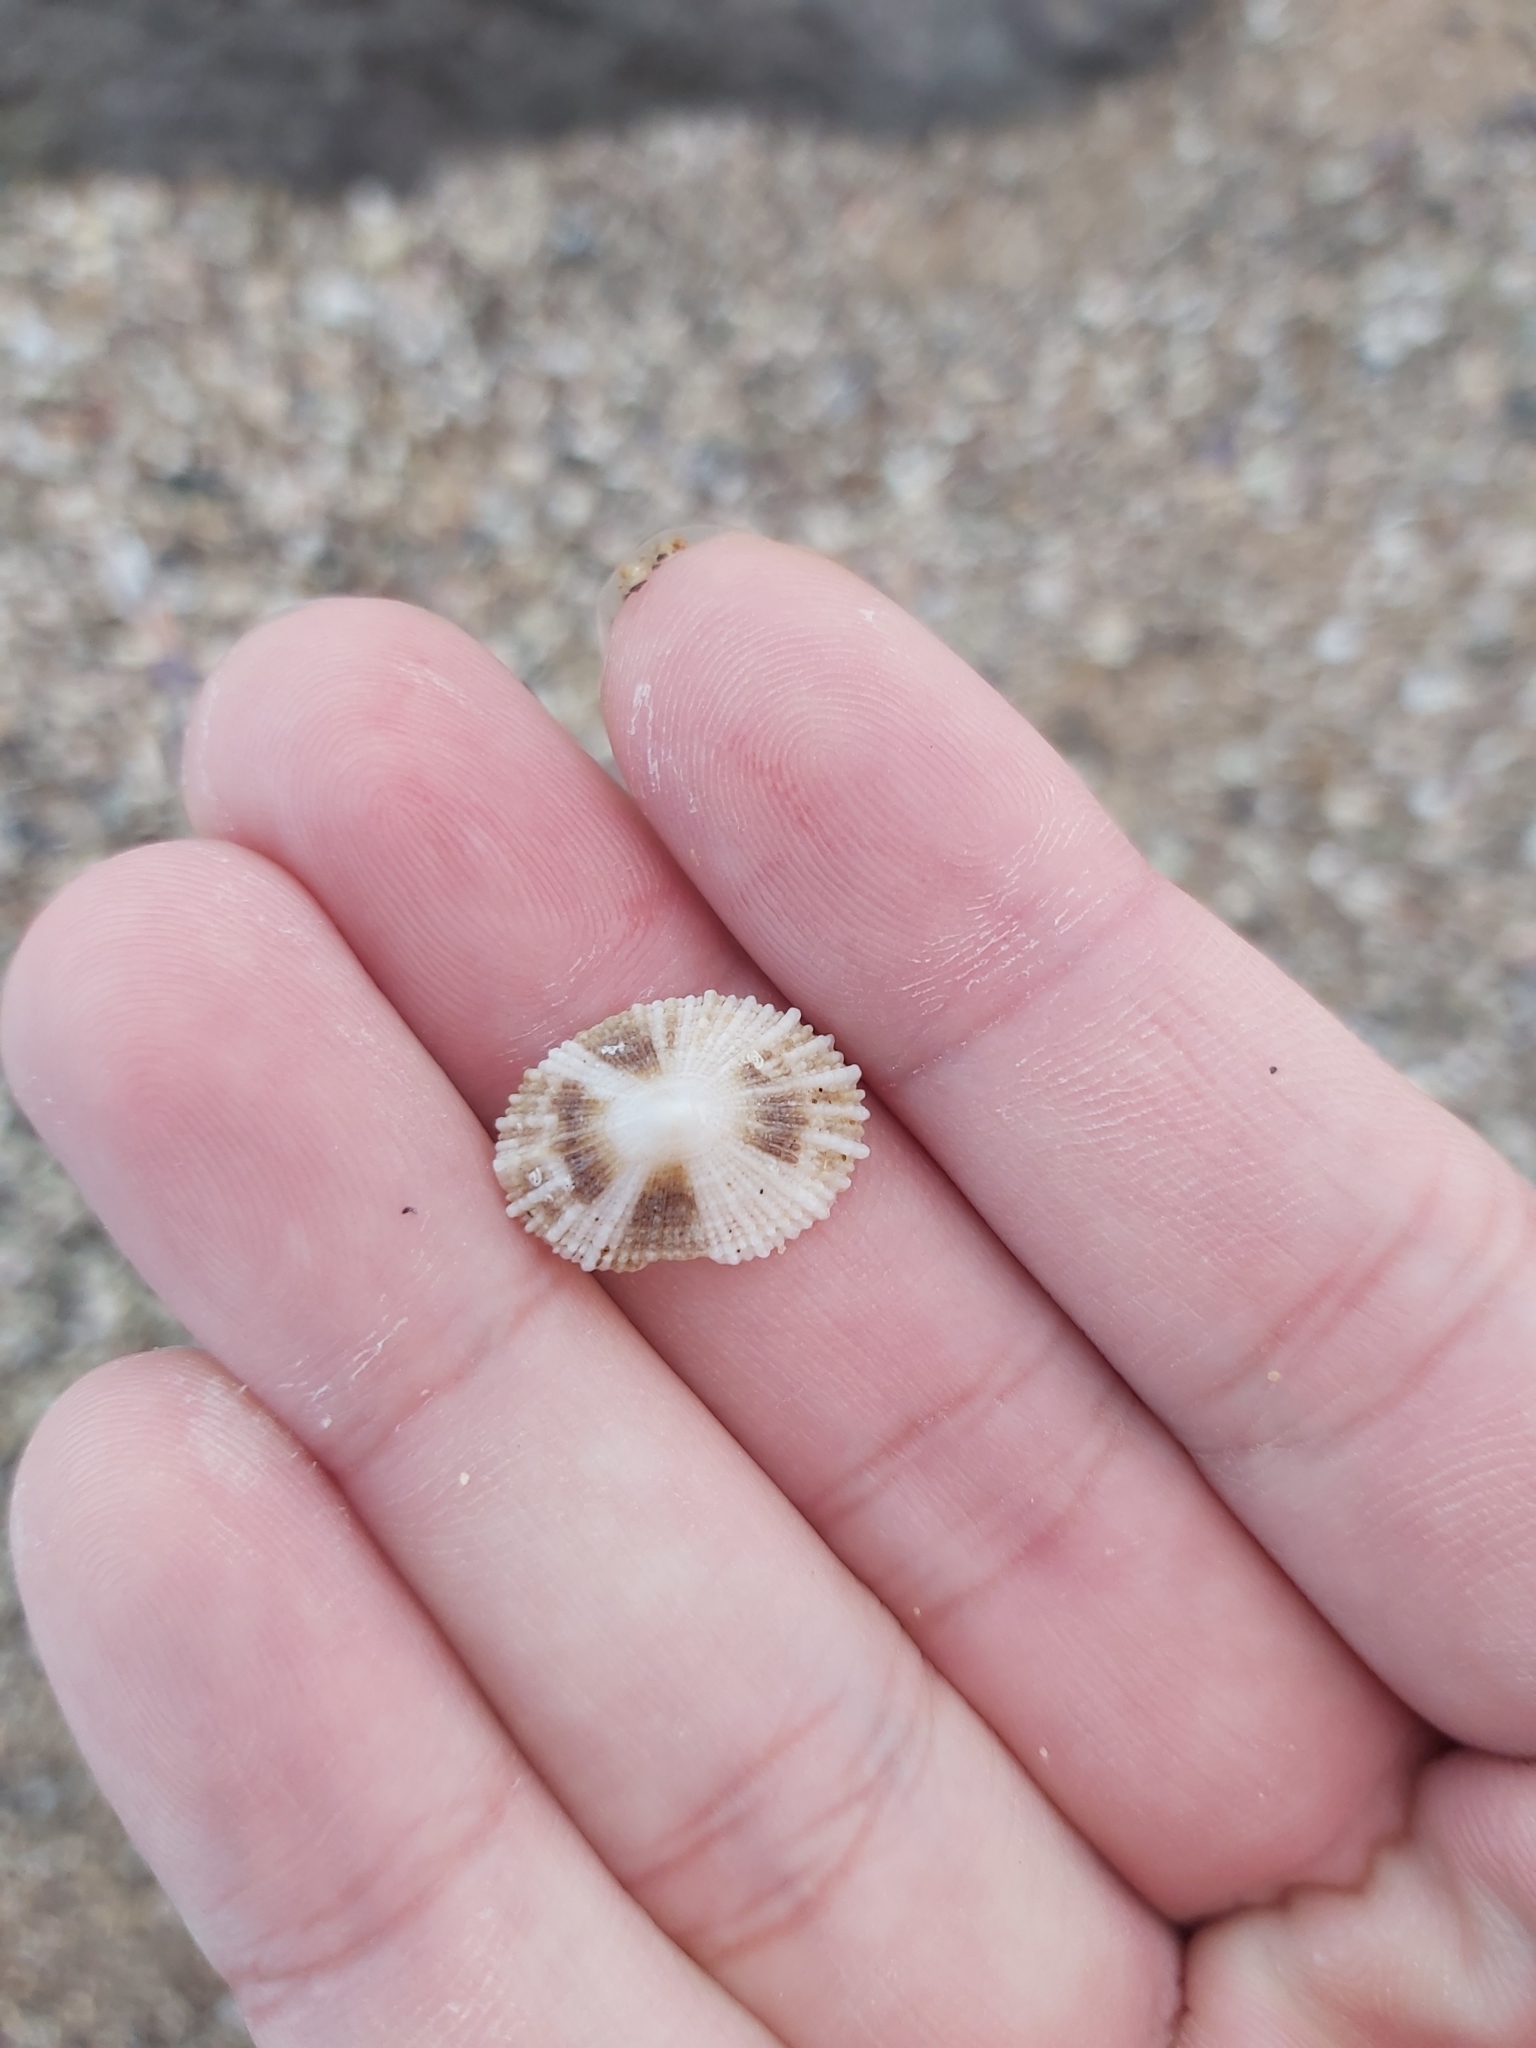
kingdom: Animalia
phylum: Mollusca
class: Gastropoda
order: Lepetellida
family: Fissurellidae
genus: Montfortula
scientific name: Montfortula rugosa
